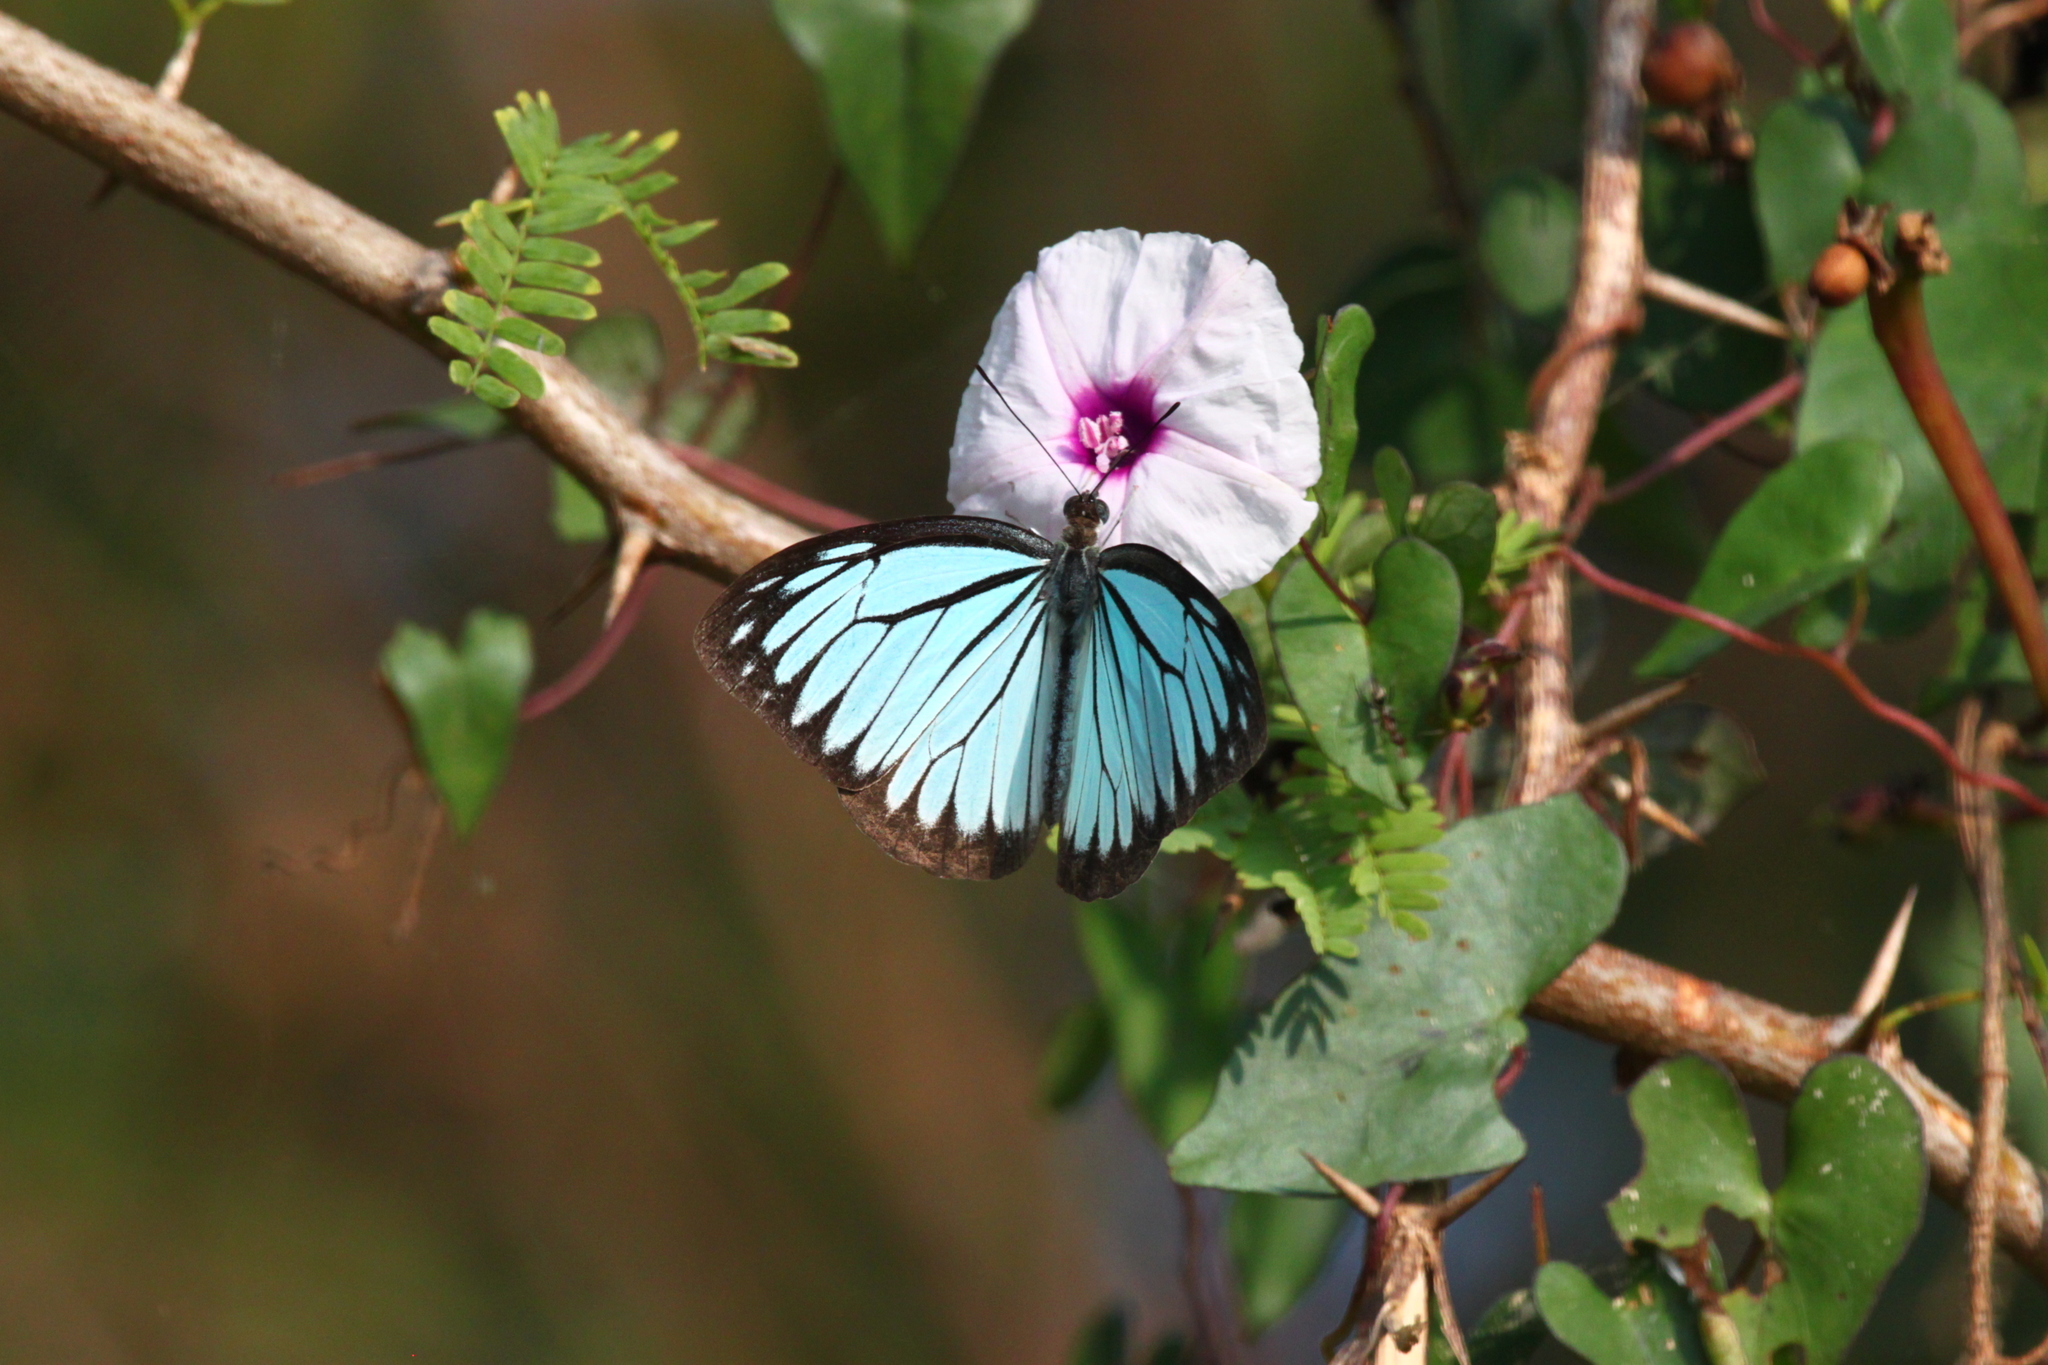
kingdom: Animalia
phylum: Arthropoda
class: Insecta
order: Lepidoptera
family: Pieridae
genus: Pareronia
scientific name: Pareronia hippia
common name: Indian wanderer
